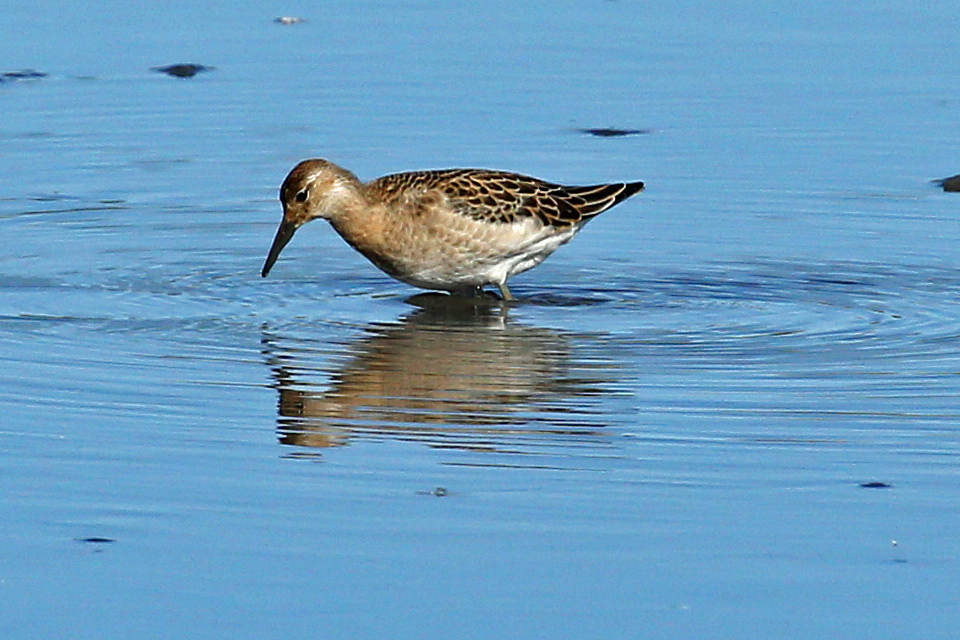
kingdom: Animalia
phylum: Chordata
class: Aves
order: Charadriiformes
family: Scolopacidae
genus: Calidris
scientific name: Calidris pugnax
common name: Ruff
